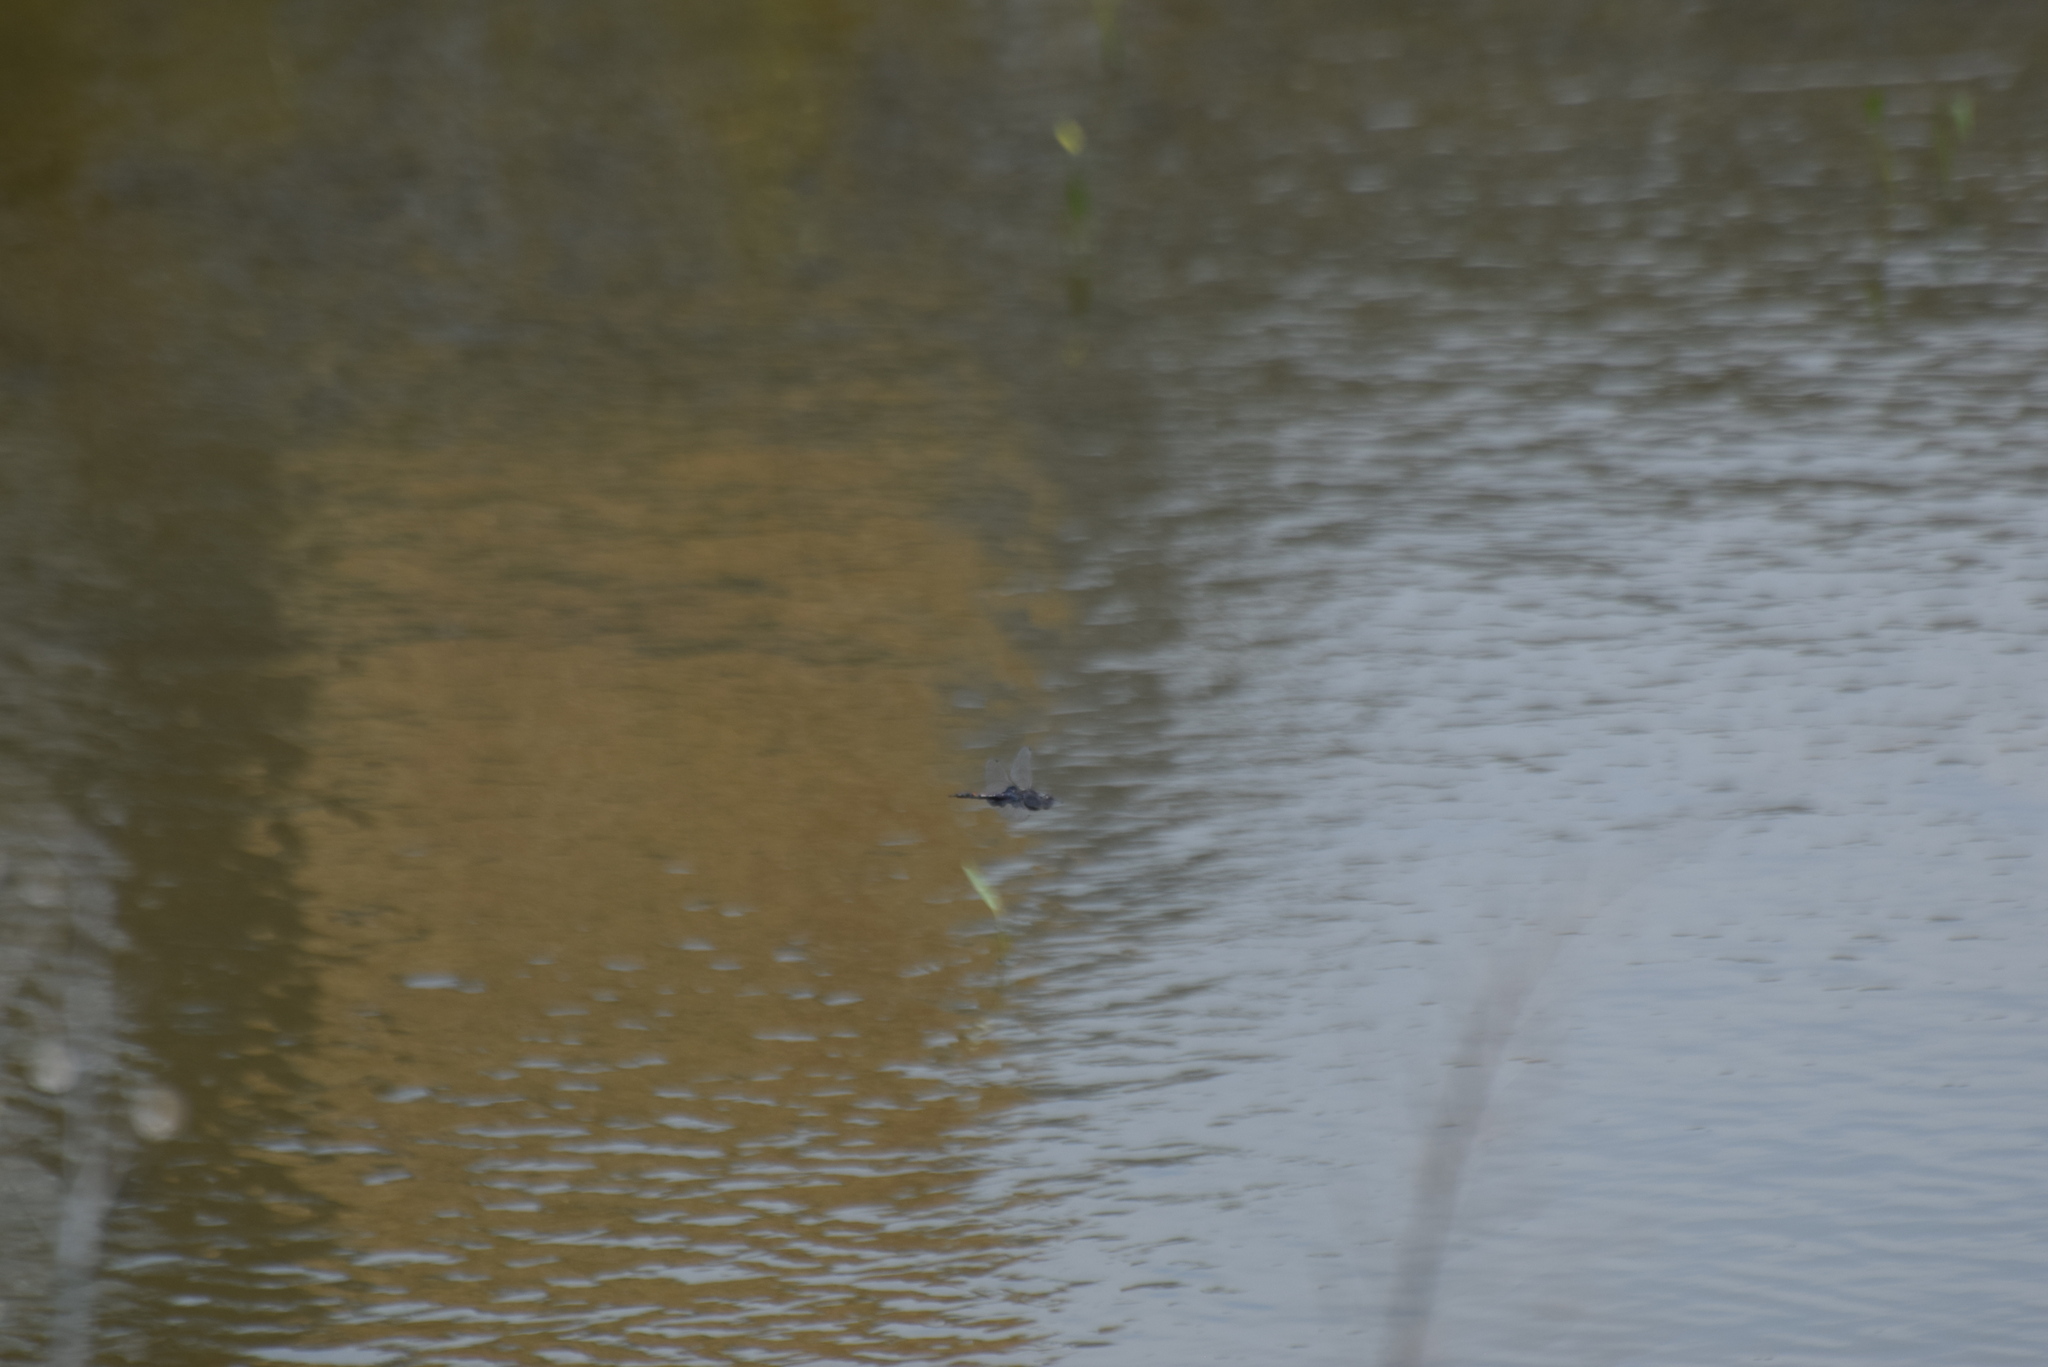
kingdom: Animalia
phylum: Arthropoda
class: Insecta
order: Odonata
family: Libellulidae
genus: Tramea
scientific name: Tramea lacerata
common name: Black saddlebags
